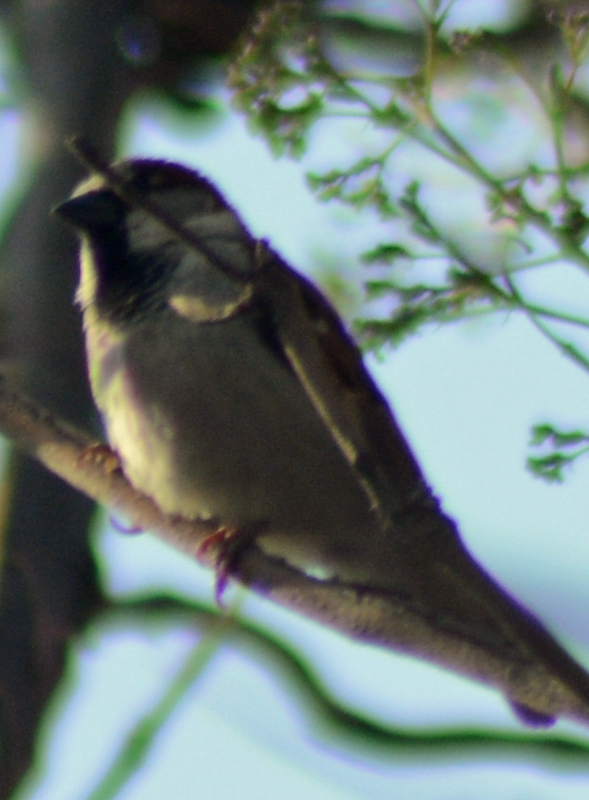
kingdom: Animalia
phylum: Chordata
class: Aves
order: Passeriformes
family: Passeridae
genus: Passer
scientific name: Passer domesticus
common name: House sparrow
